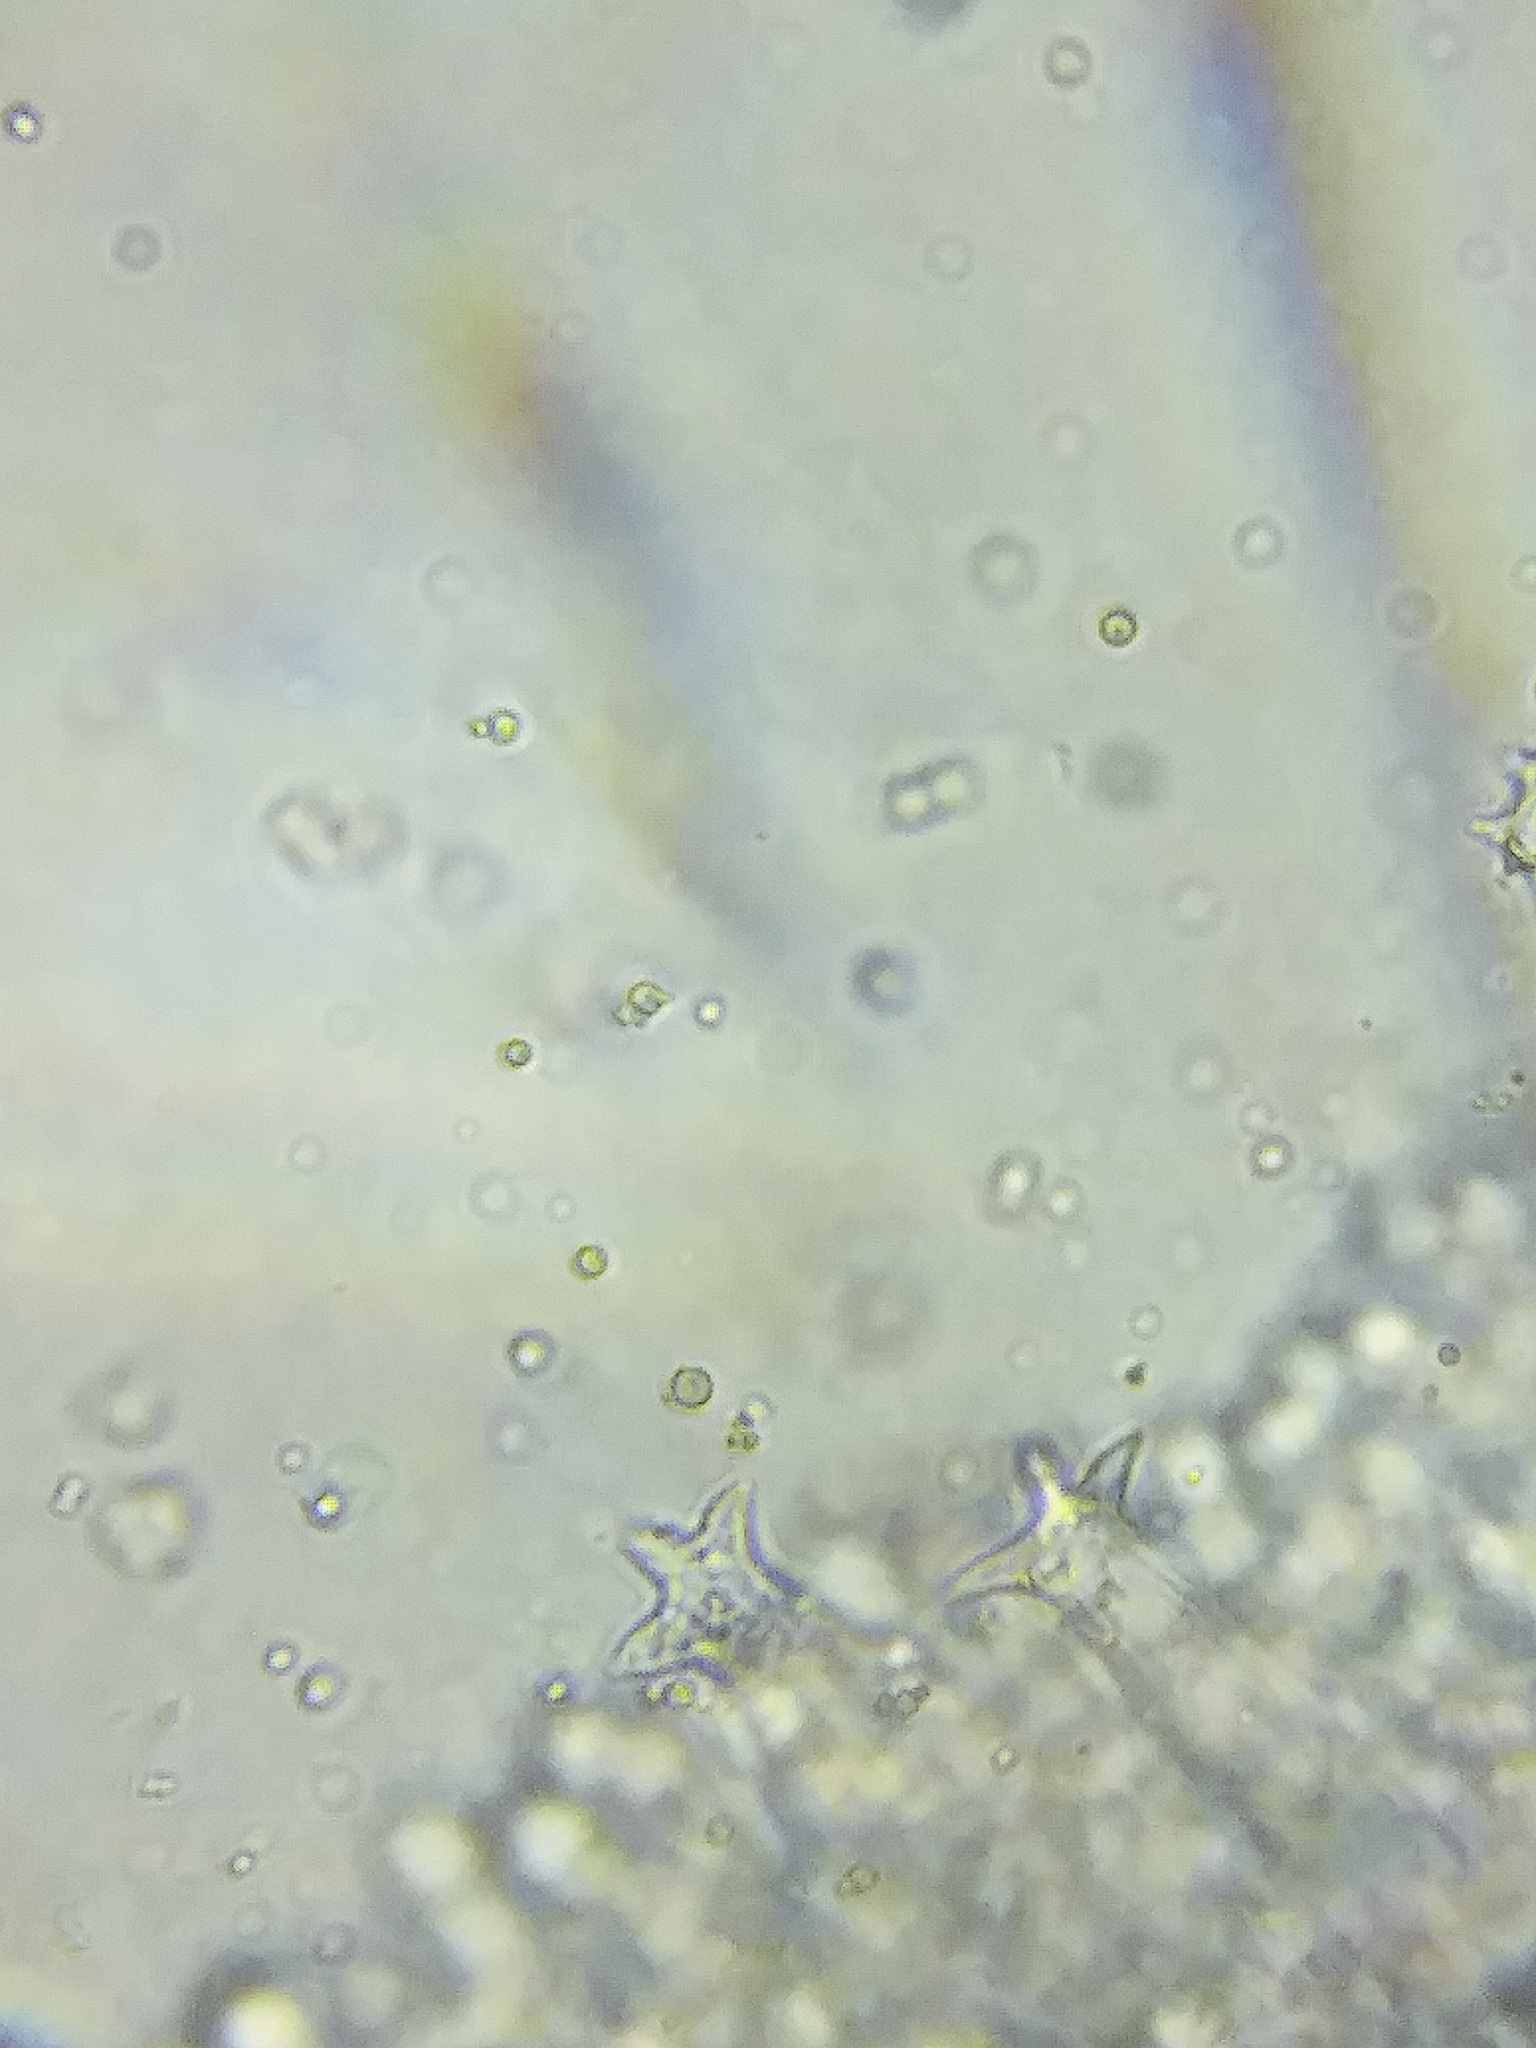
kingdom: Fungi
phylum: Basidiomycota
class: Agaricomycetes
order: Agaricales
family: Pluteaceae
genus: Pluteus
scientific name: Pluteus cervinus
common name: Deer shield
